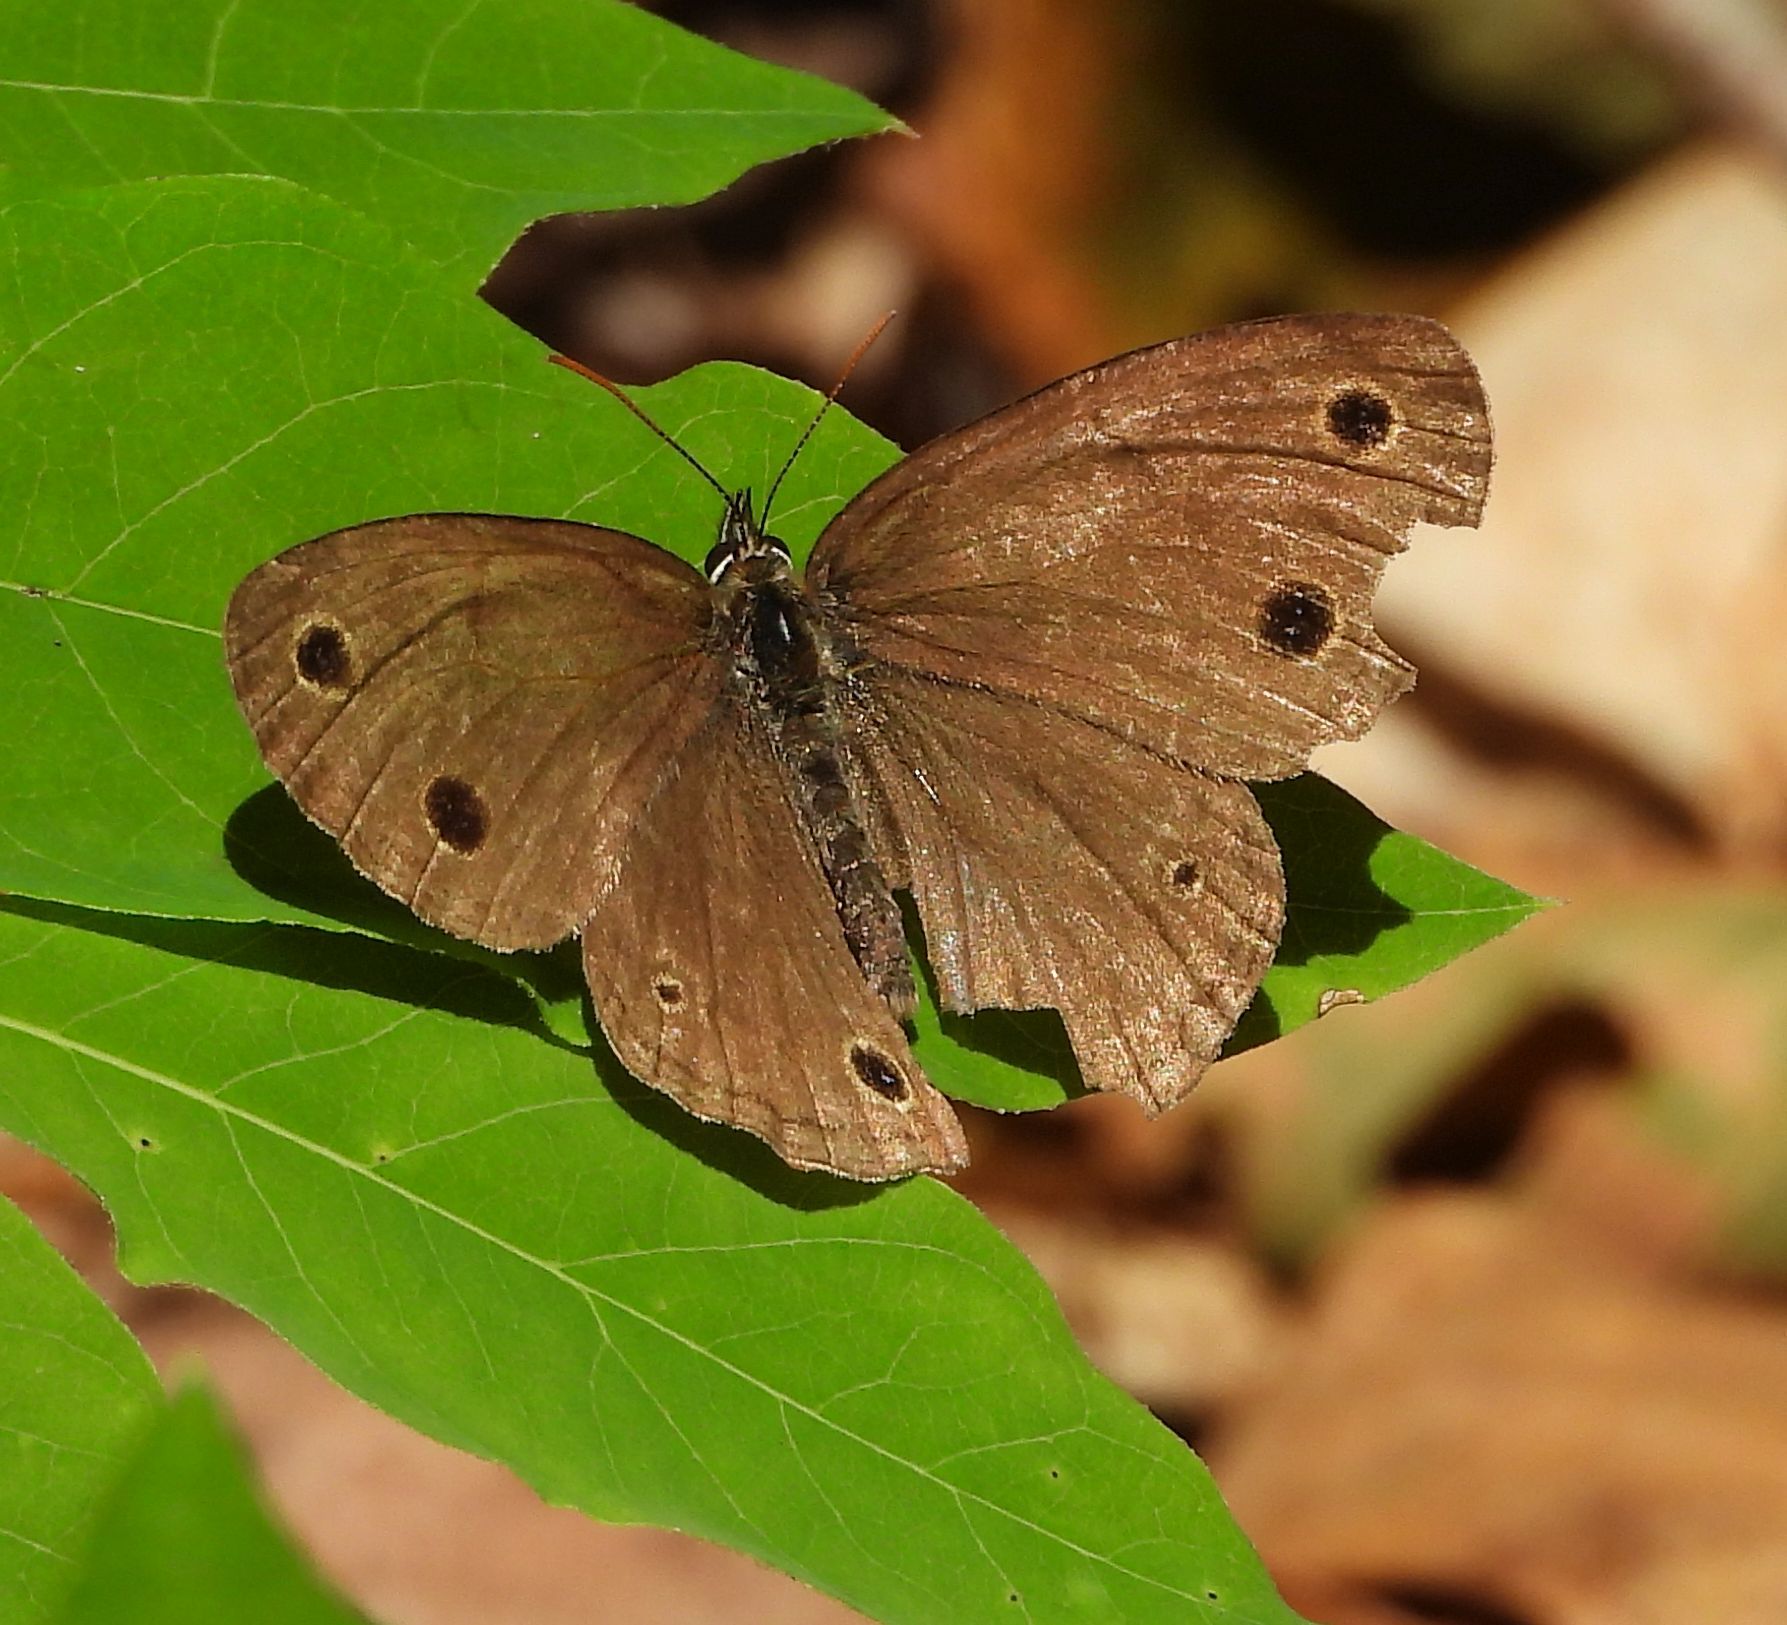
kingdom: Animalia
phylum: Arthropoda
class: Insecta
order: Lepidoptera
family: Nymphalidae
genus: Euptychia
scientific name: Euptychia cymela
